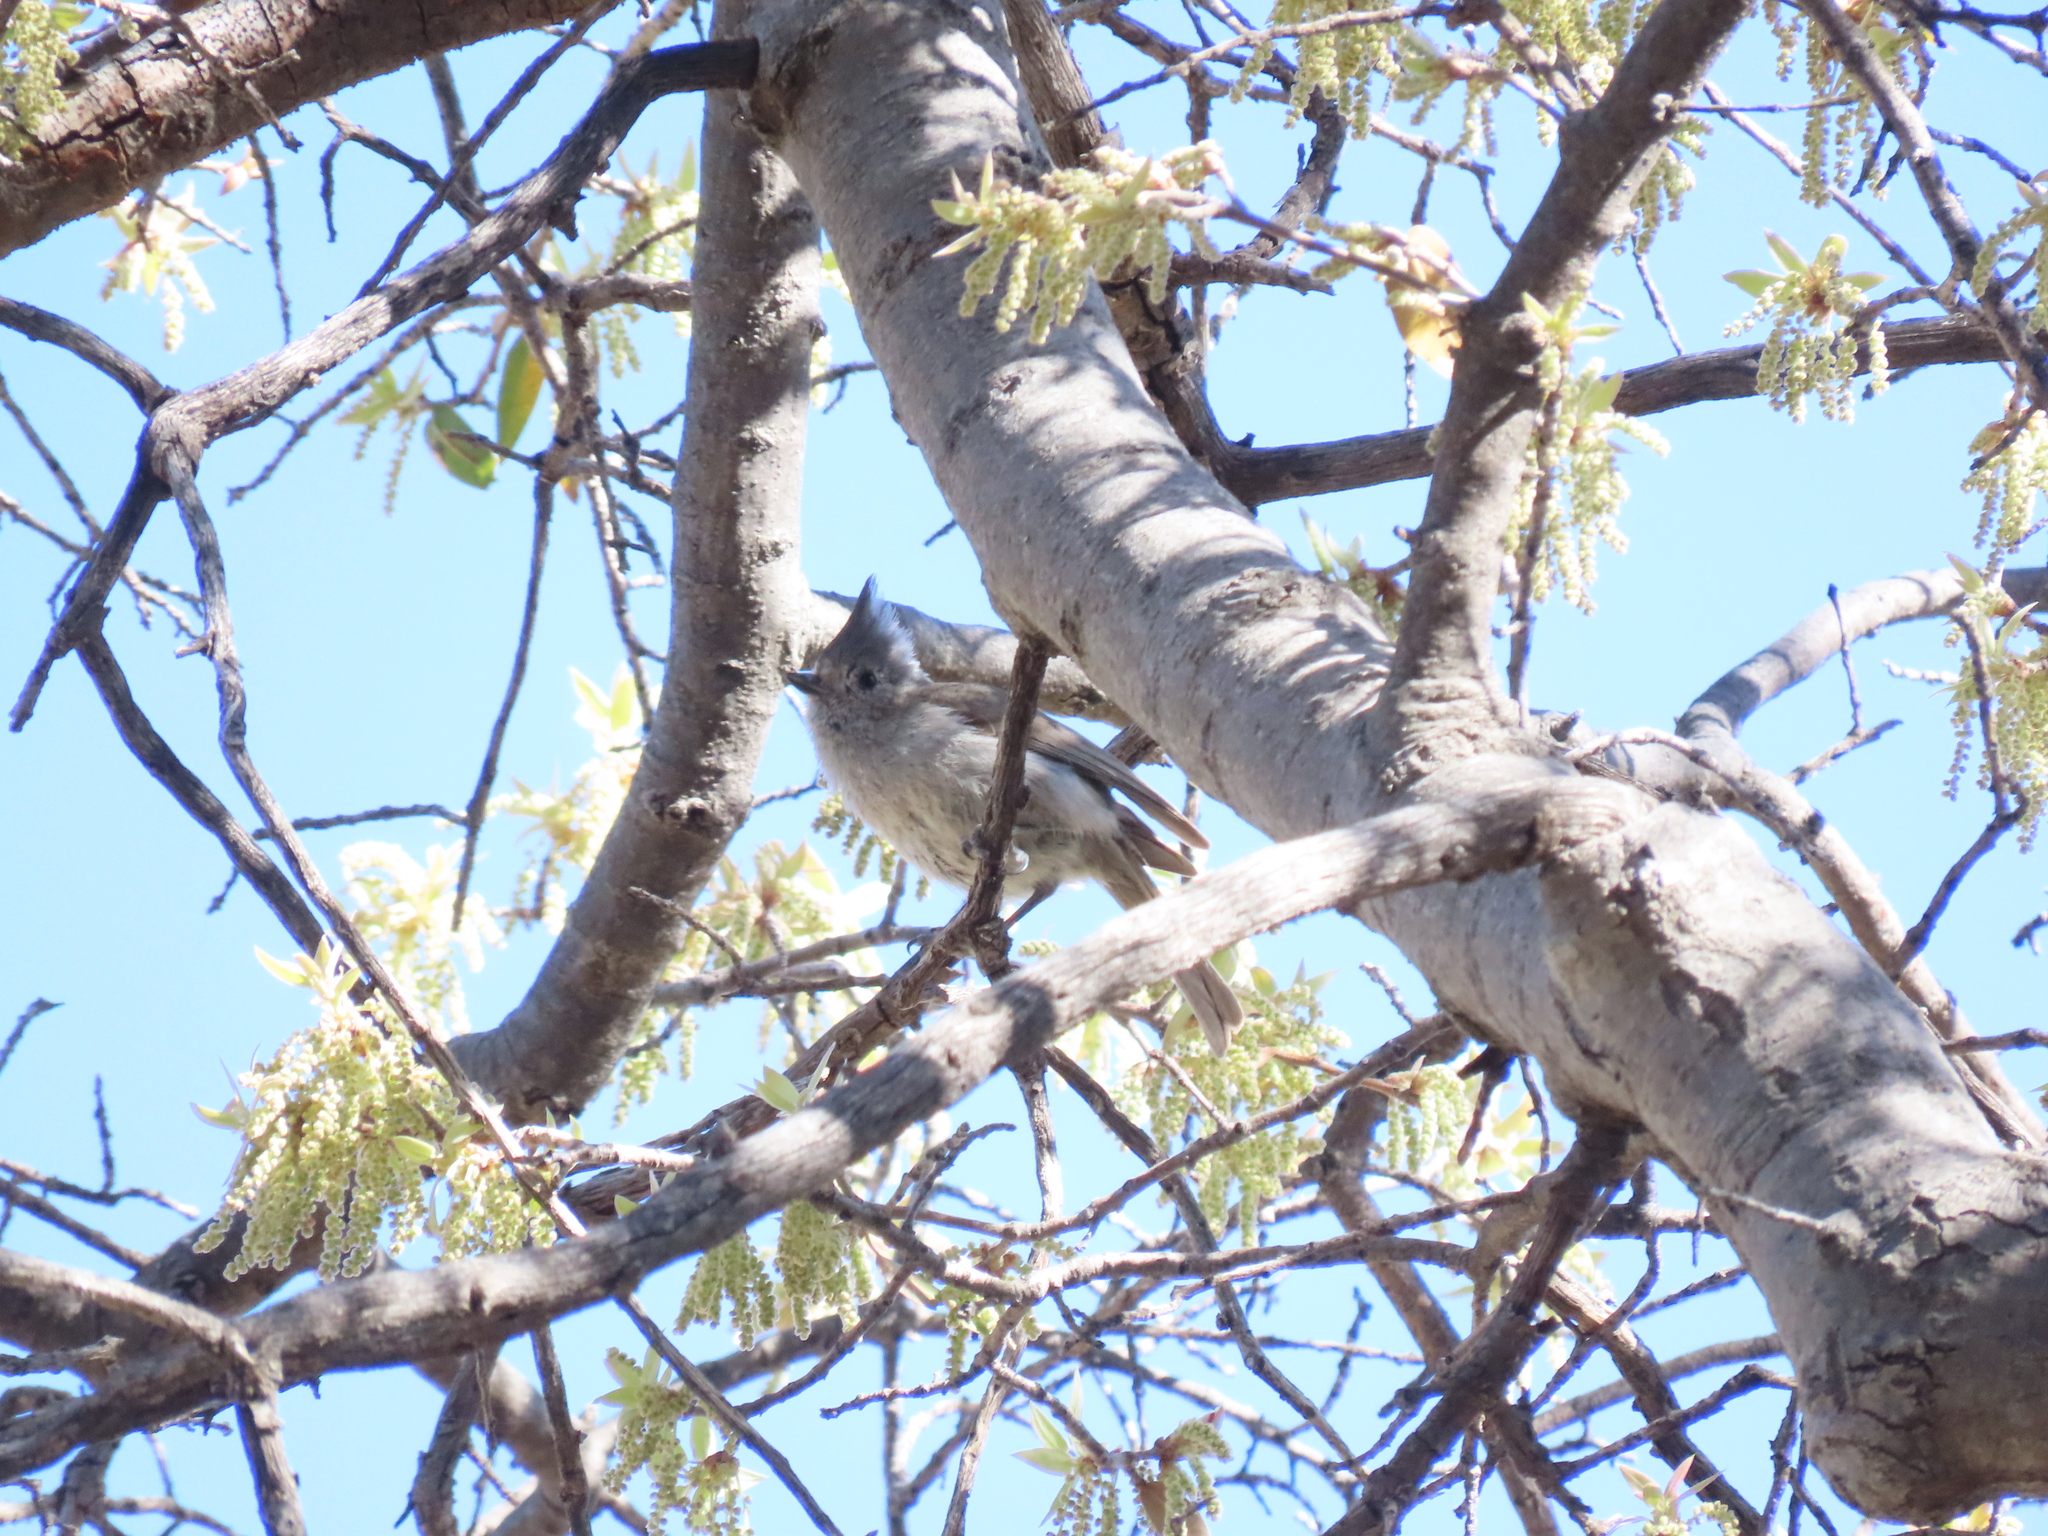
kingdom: Animalia
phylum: Chordata
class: Aves
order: Passeriformes
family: Paridae
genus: Baeolophus
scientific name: Baeolophus ridgwayi
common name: Juniper titmouse
